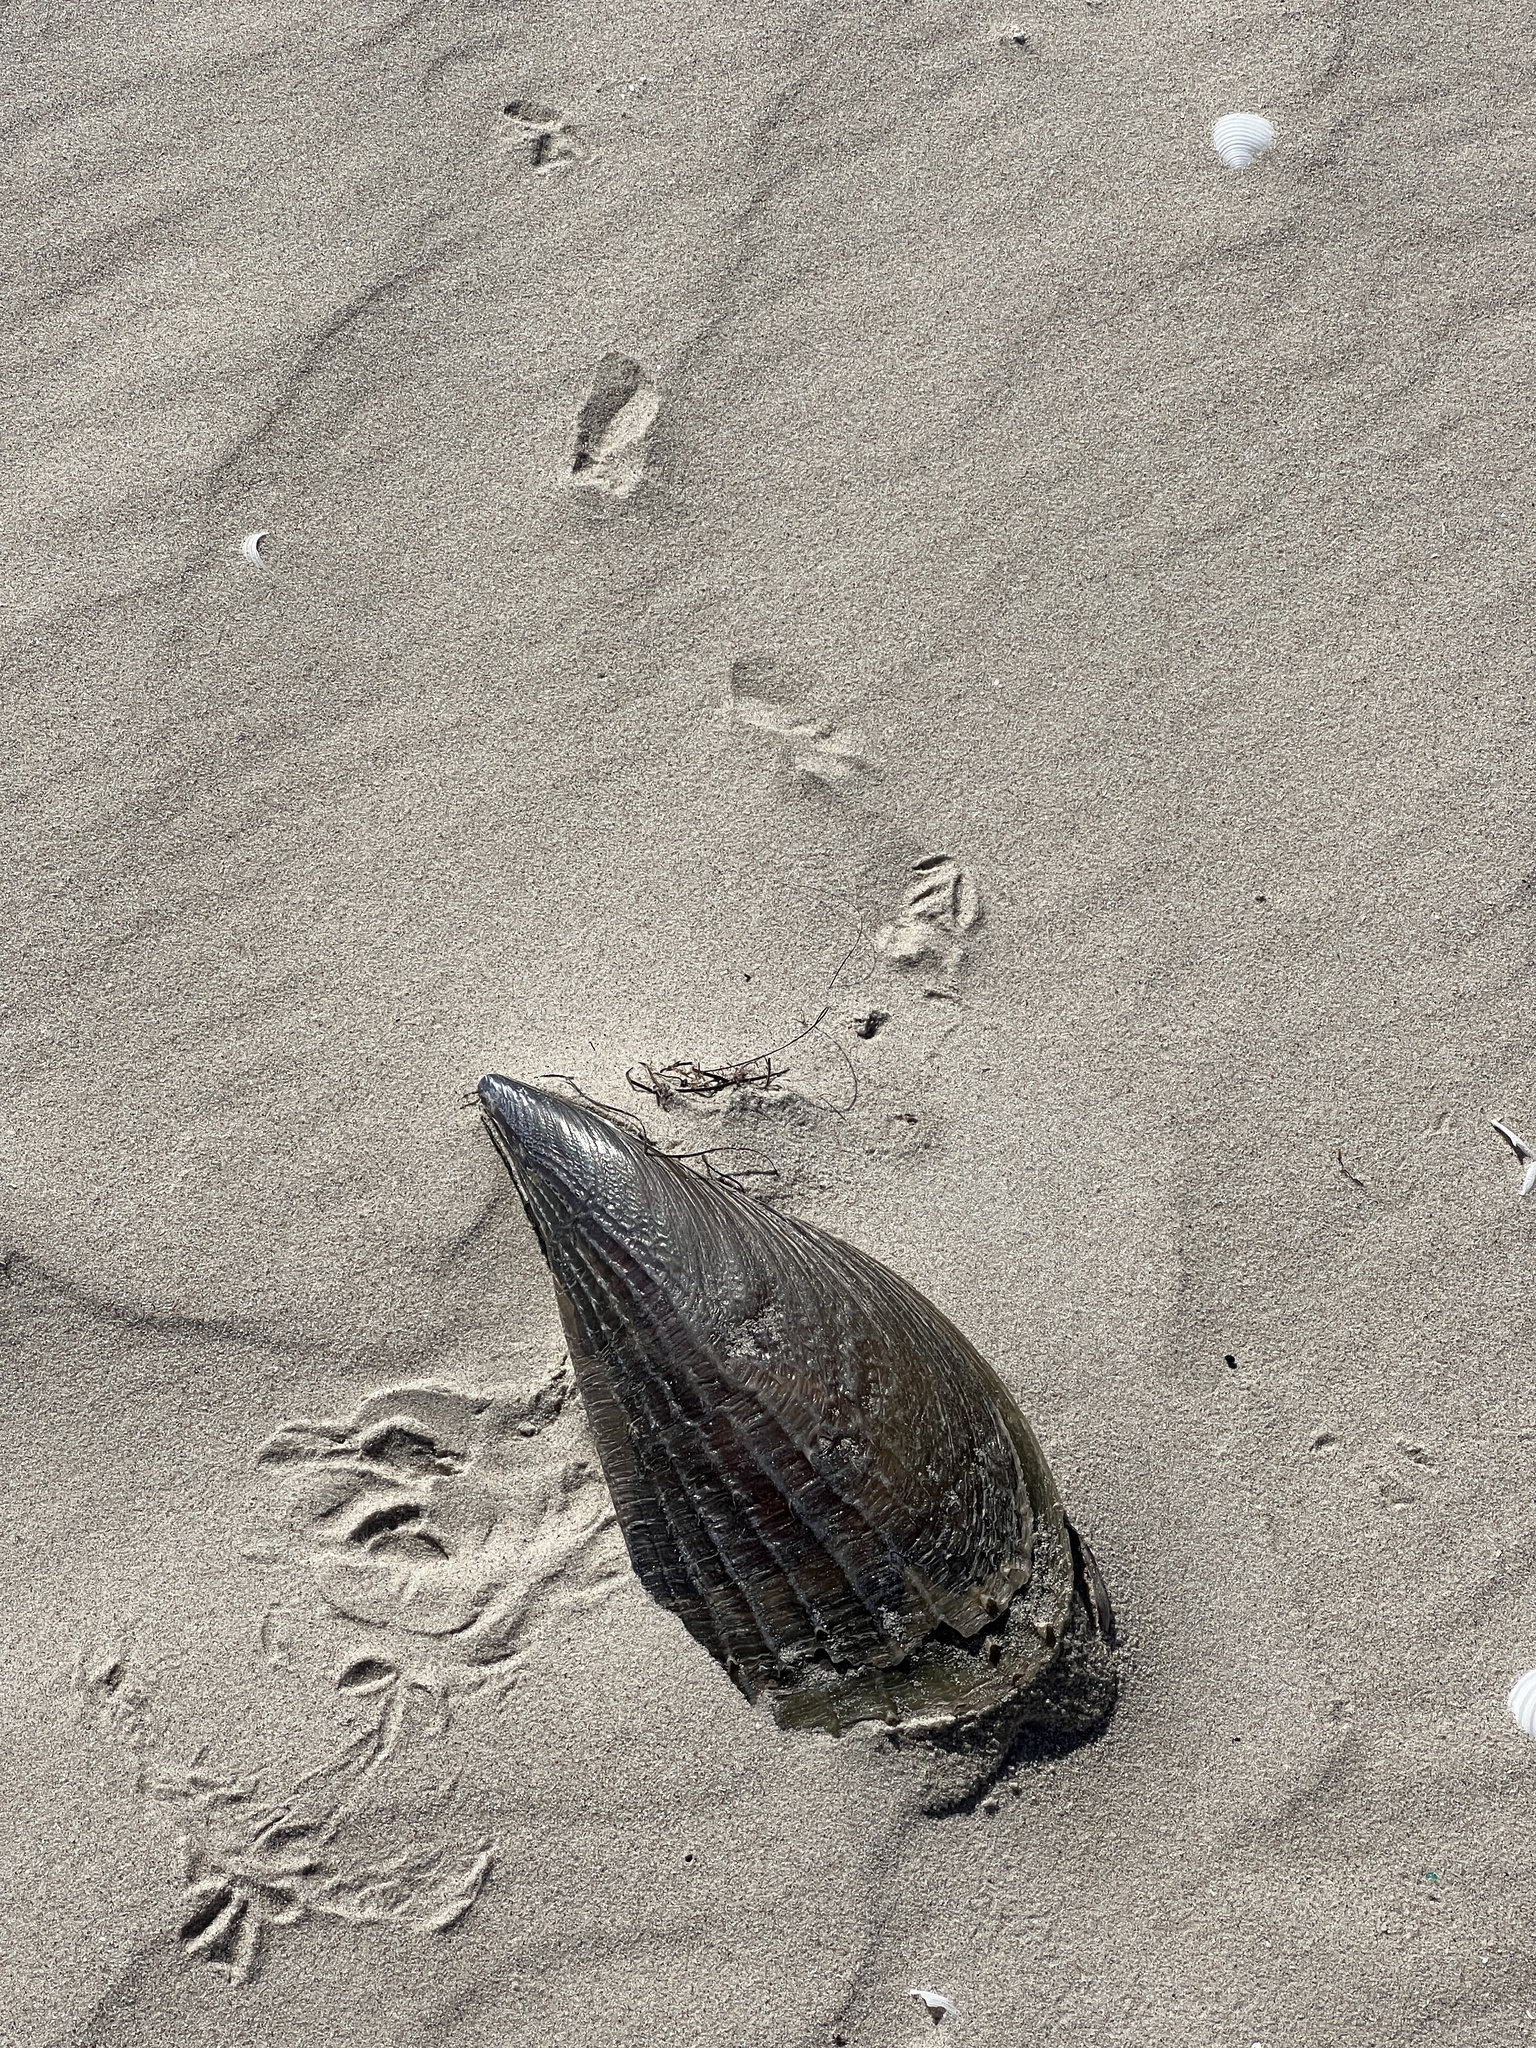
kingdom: Animalia
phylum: Mollusca
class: Bivalvia
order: Ostreida
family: Pinnidae
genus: Atrina
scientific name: Atrina rigida
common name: Stiff penshell
